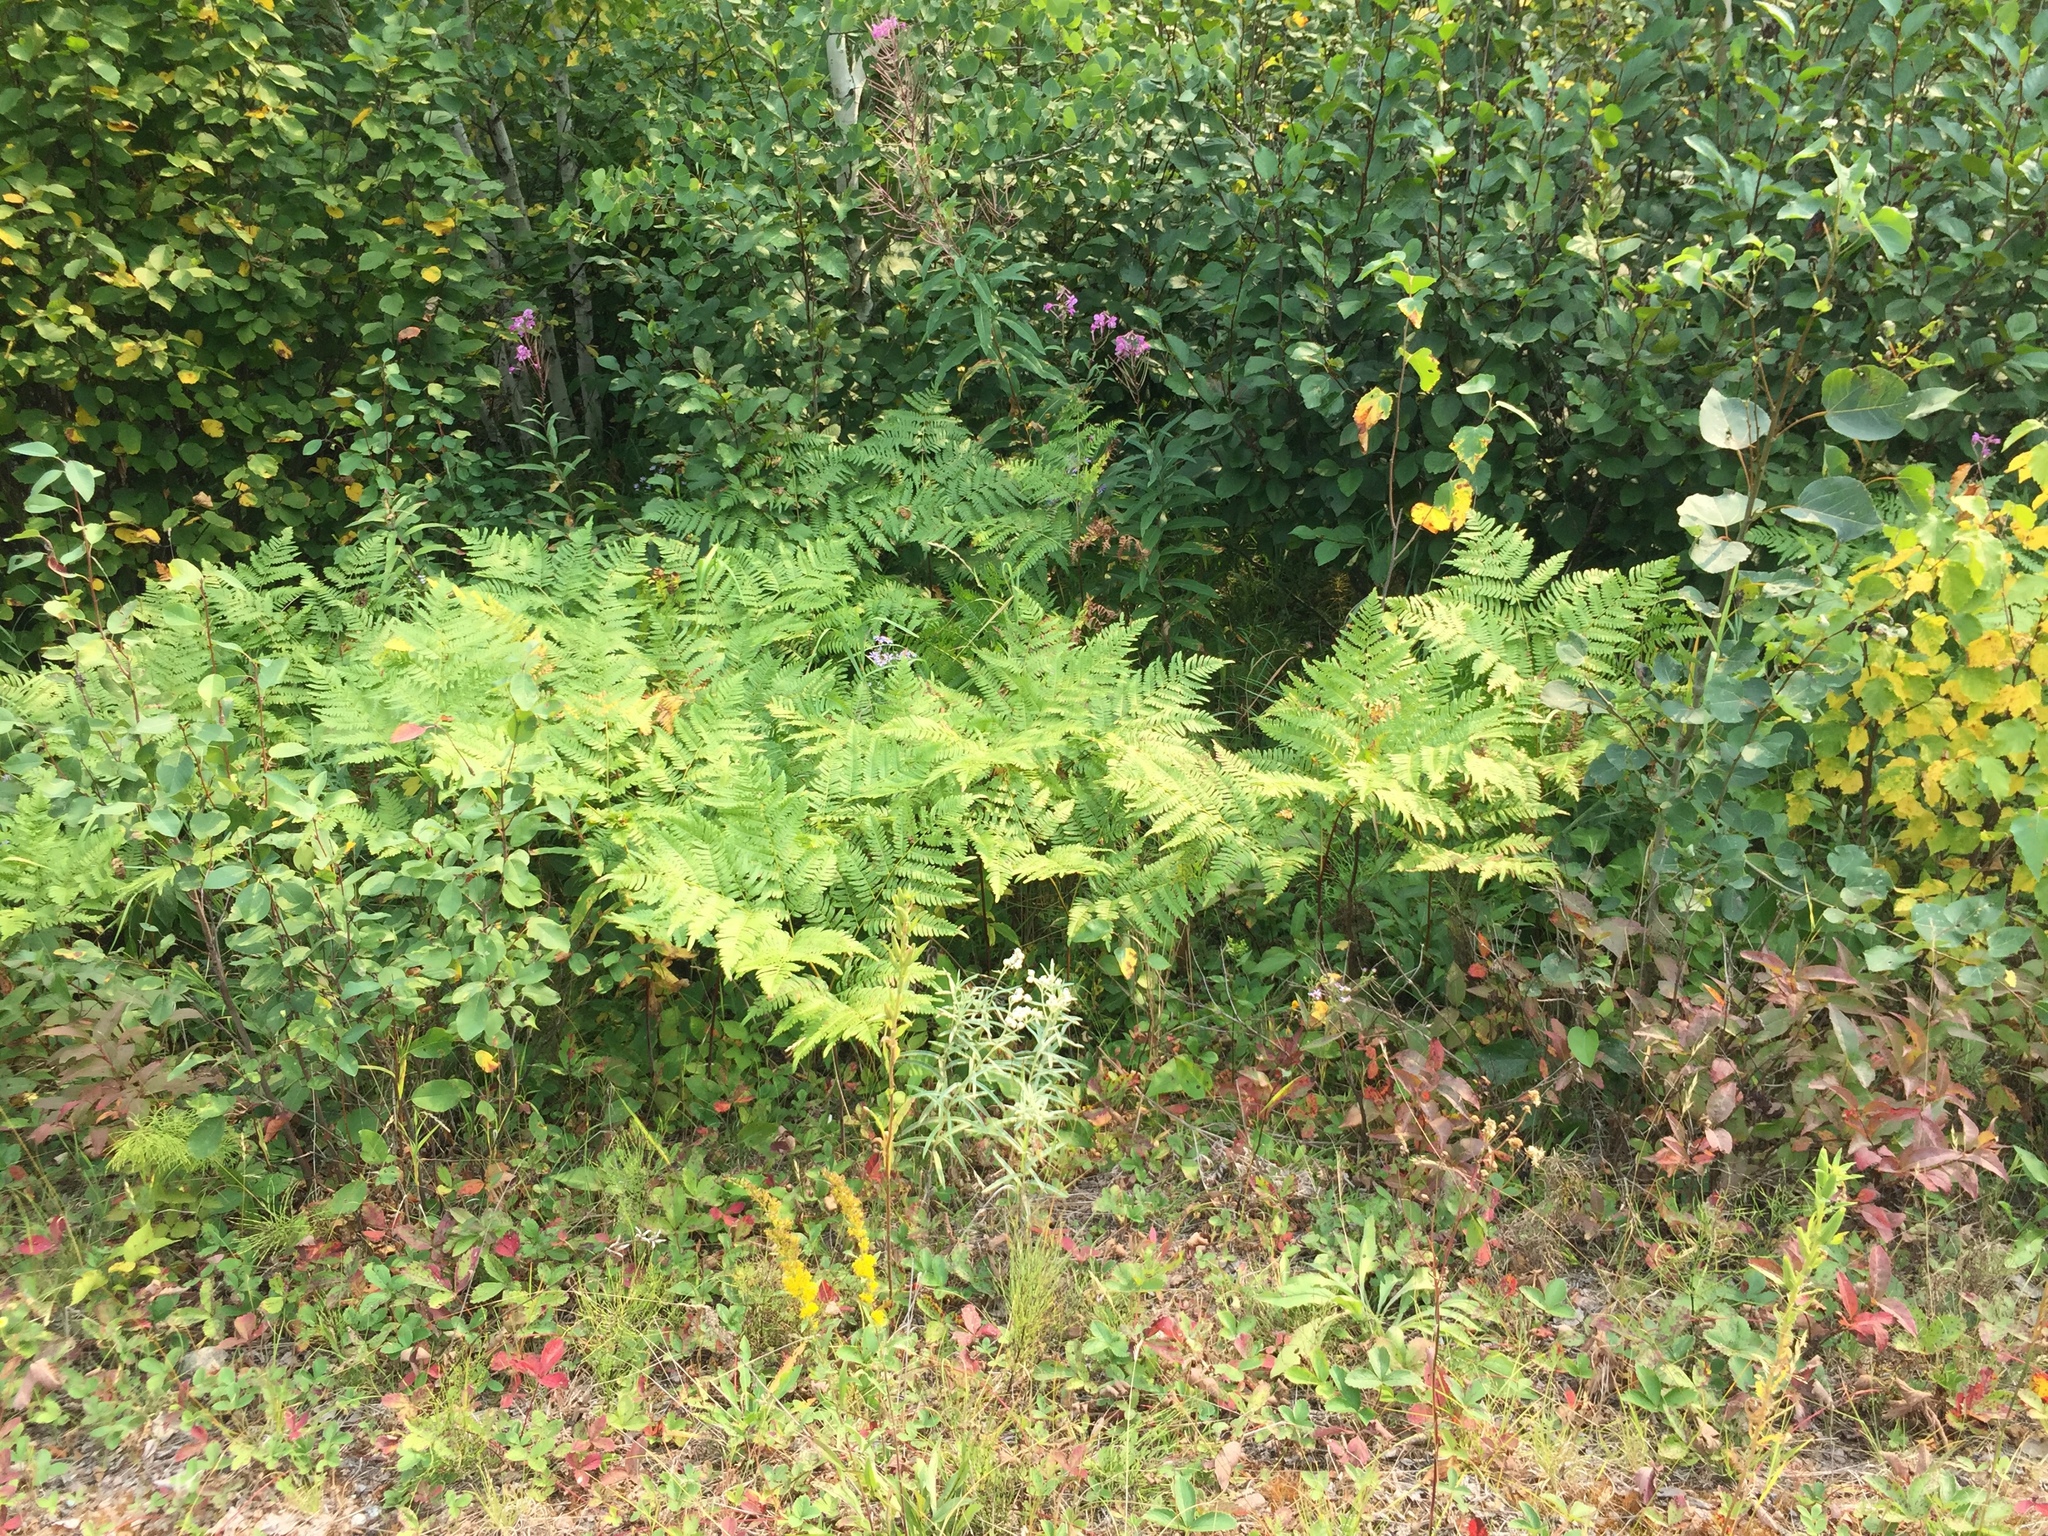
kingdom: Plantae
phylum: Tracheophyta
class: Polypodiopsida
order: Polypodiales
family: Dennstaedtiaceae
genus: Pteridium
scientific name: Pteridium aquilinum
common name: Bracken
